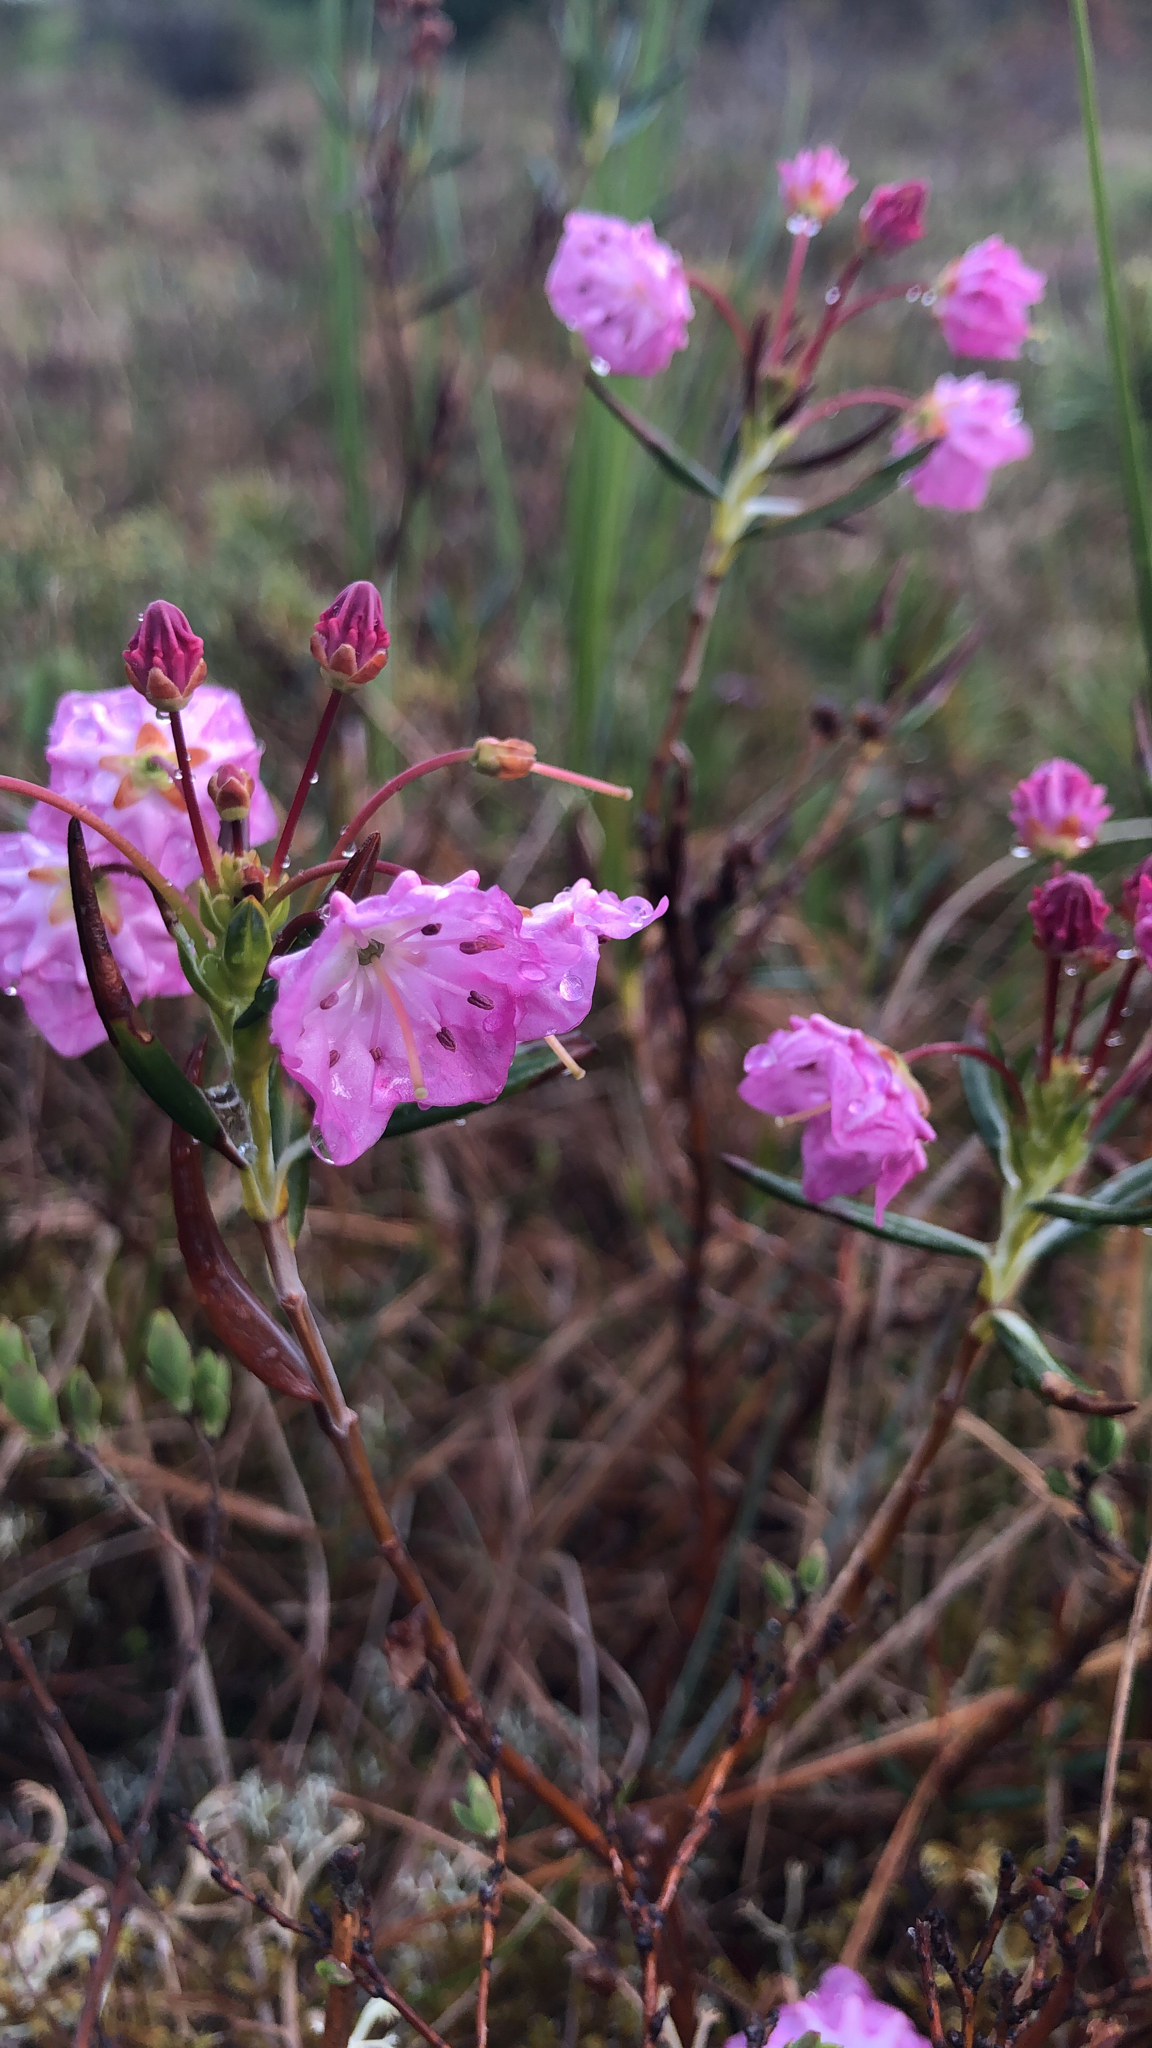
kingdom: Plantae
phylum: Tracheophyta
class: Magnoliopsida
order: Ericales
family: Ericaceae
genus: Kalmia
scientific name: Kalmia microphylla
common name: Alpine bog laurel
